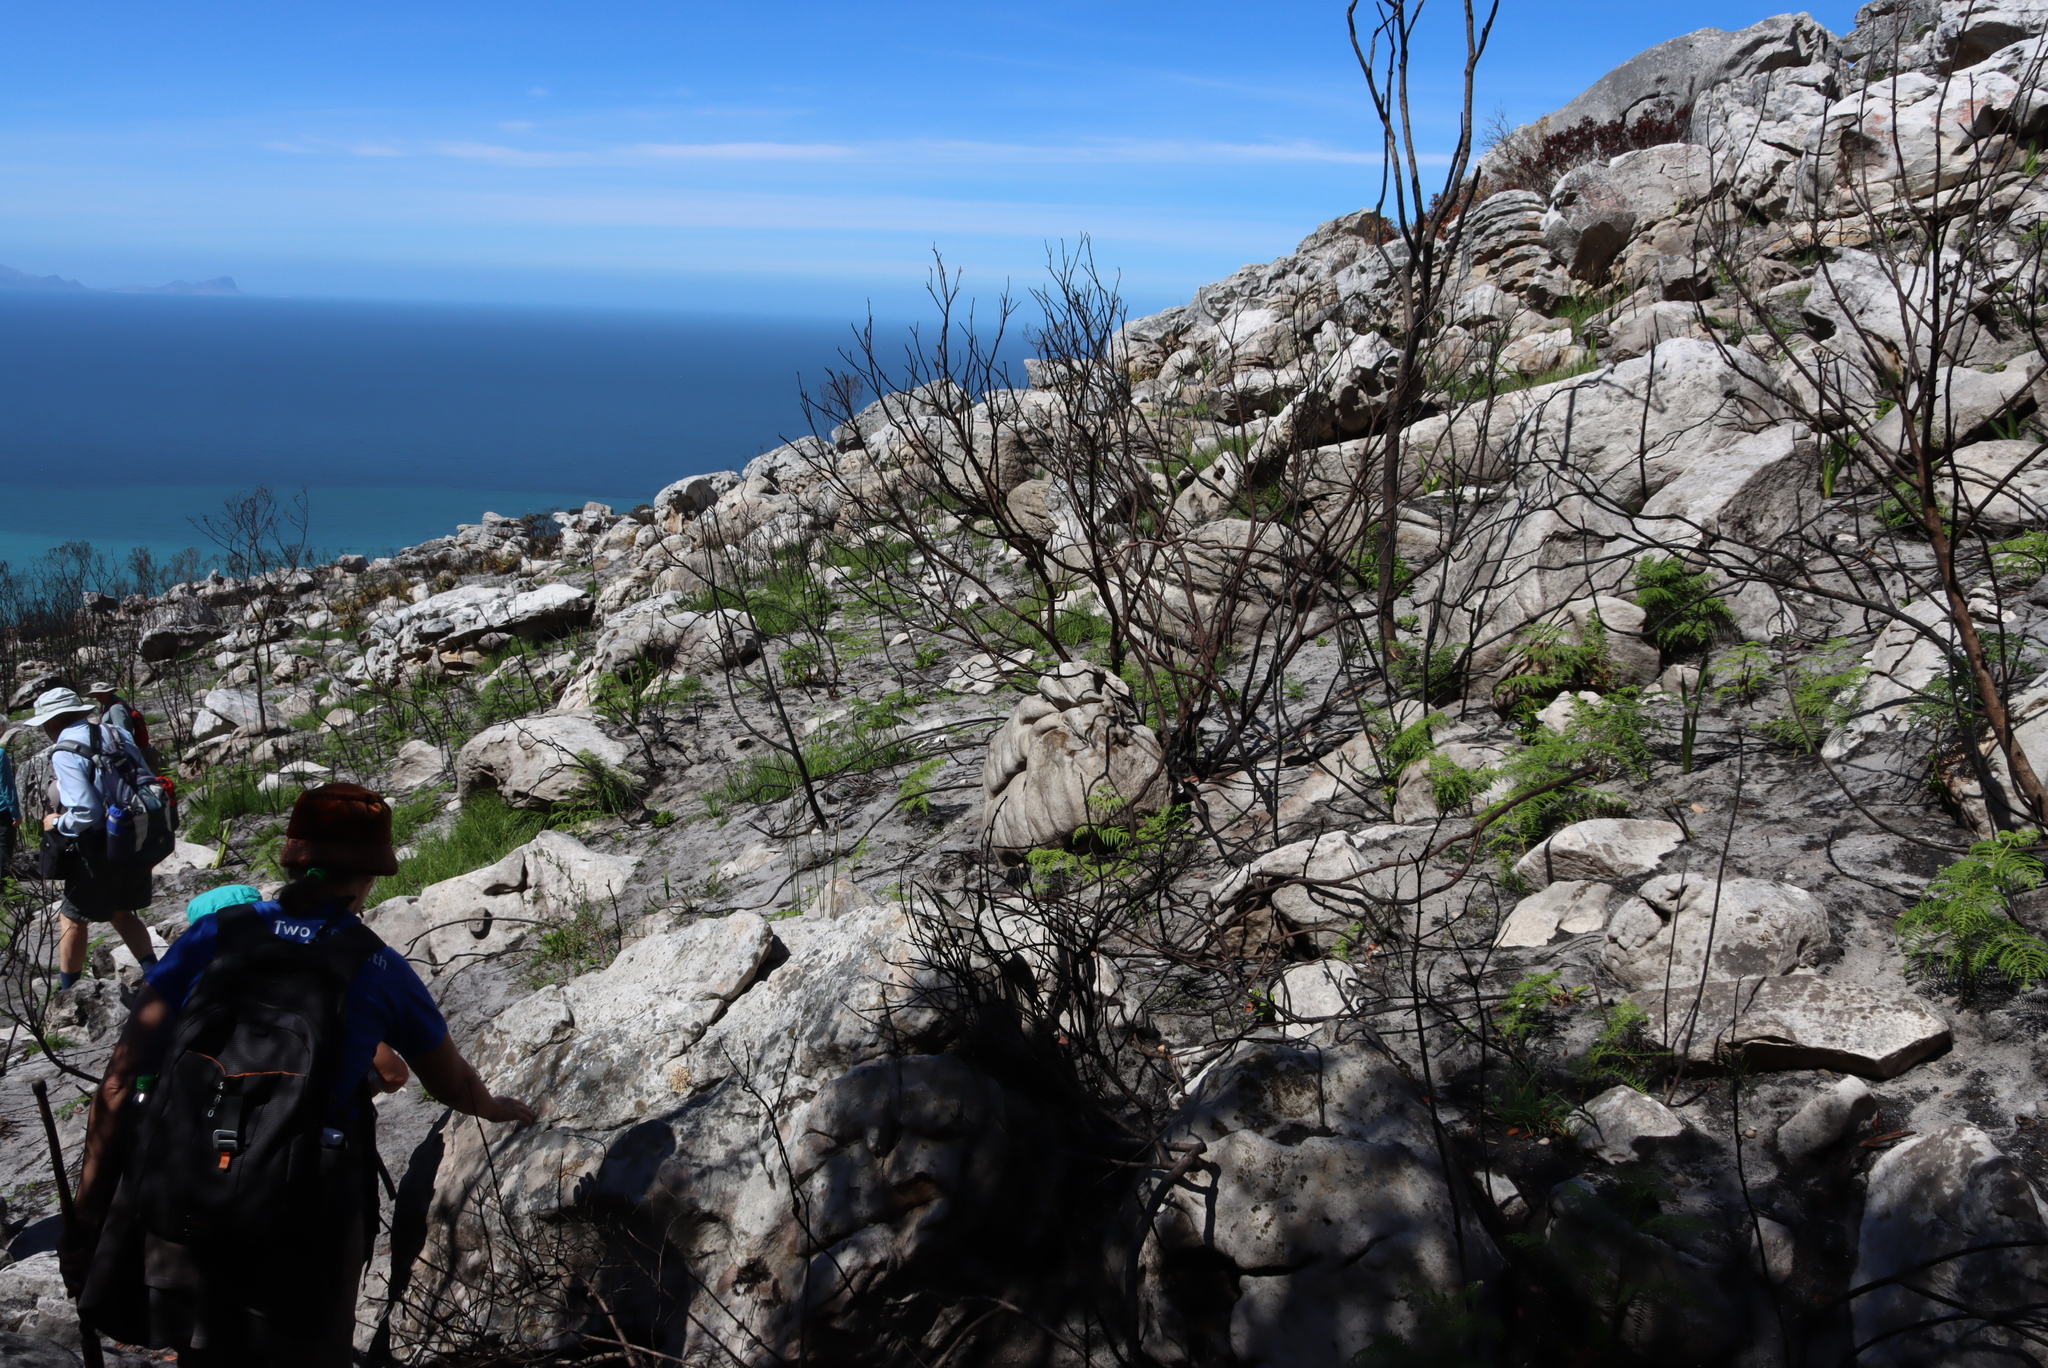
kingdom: Plantae
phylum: Tracheophyta
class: Polypodiopsida
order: Polypodiales
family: Dennstaedtiaceae
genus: Pteridium
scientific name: Pteridium aquilinum
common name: Bracken
